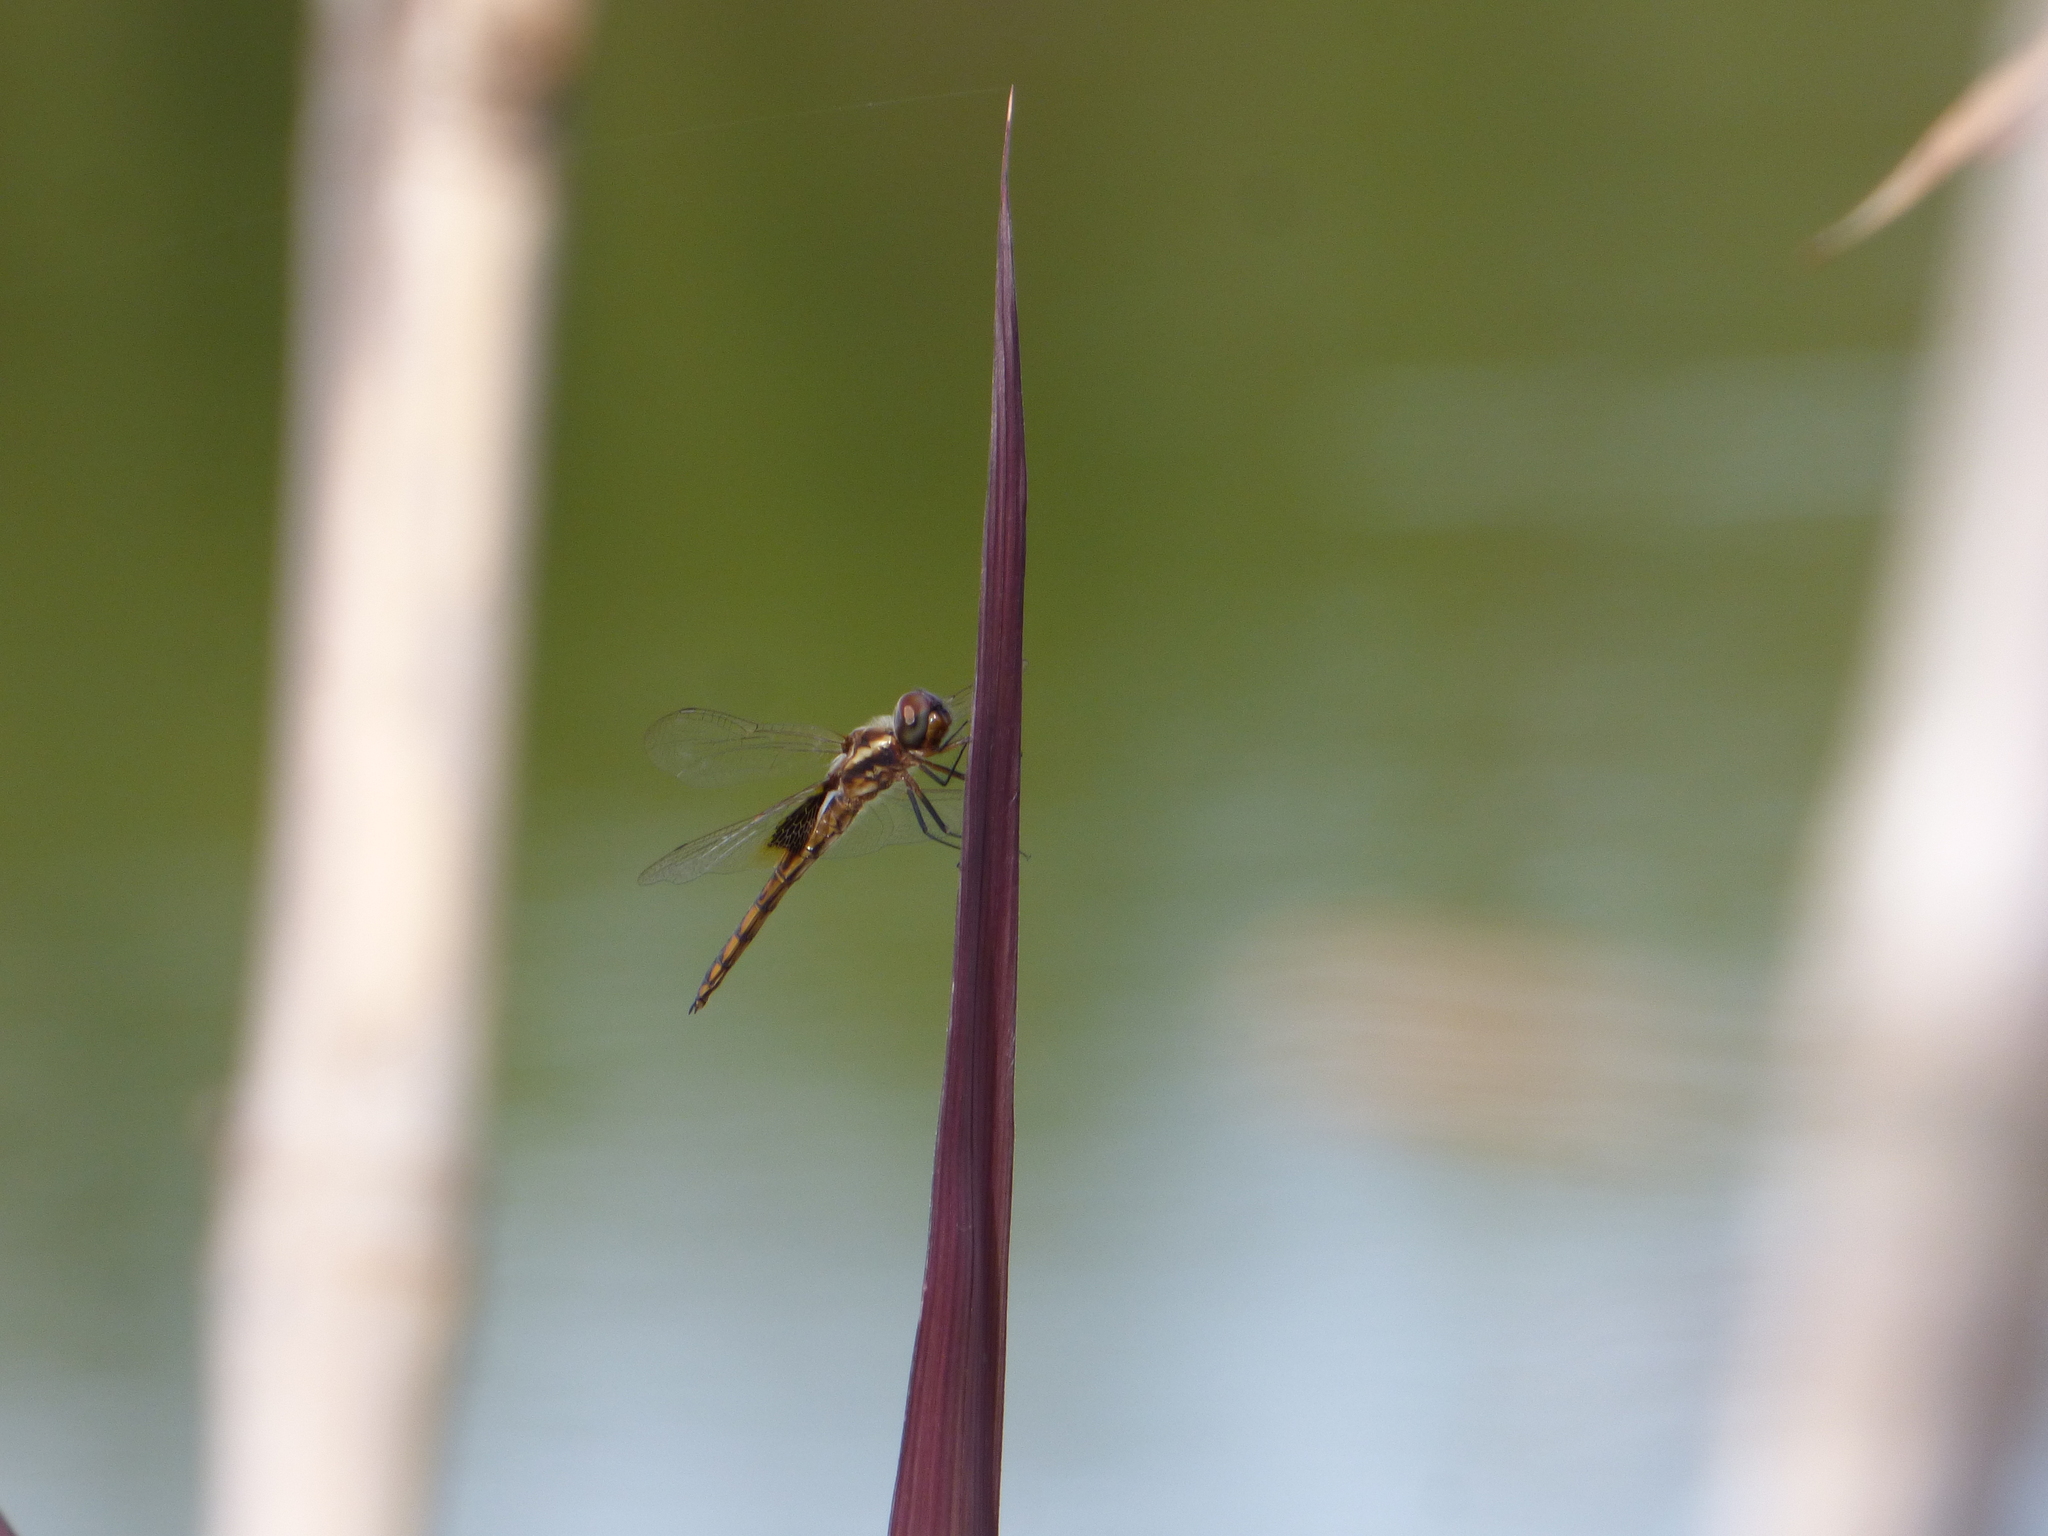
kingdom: Animalia
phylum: Arthropoda
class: Insecta
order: Odonata
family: Libellulidae
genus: Miathyria
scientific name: Miathyria marcella
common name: Hyacinth glider
